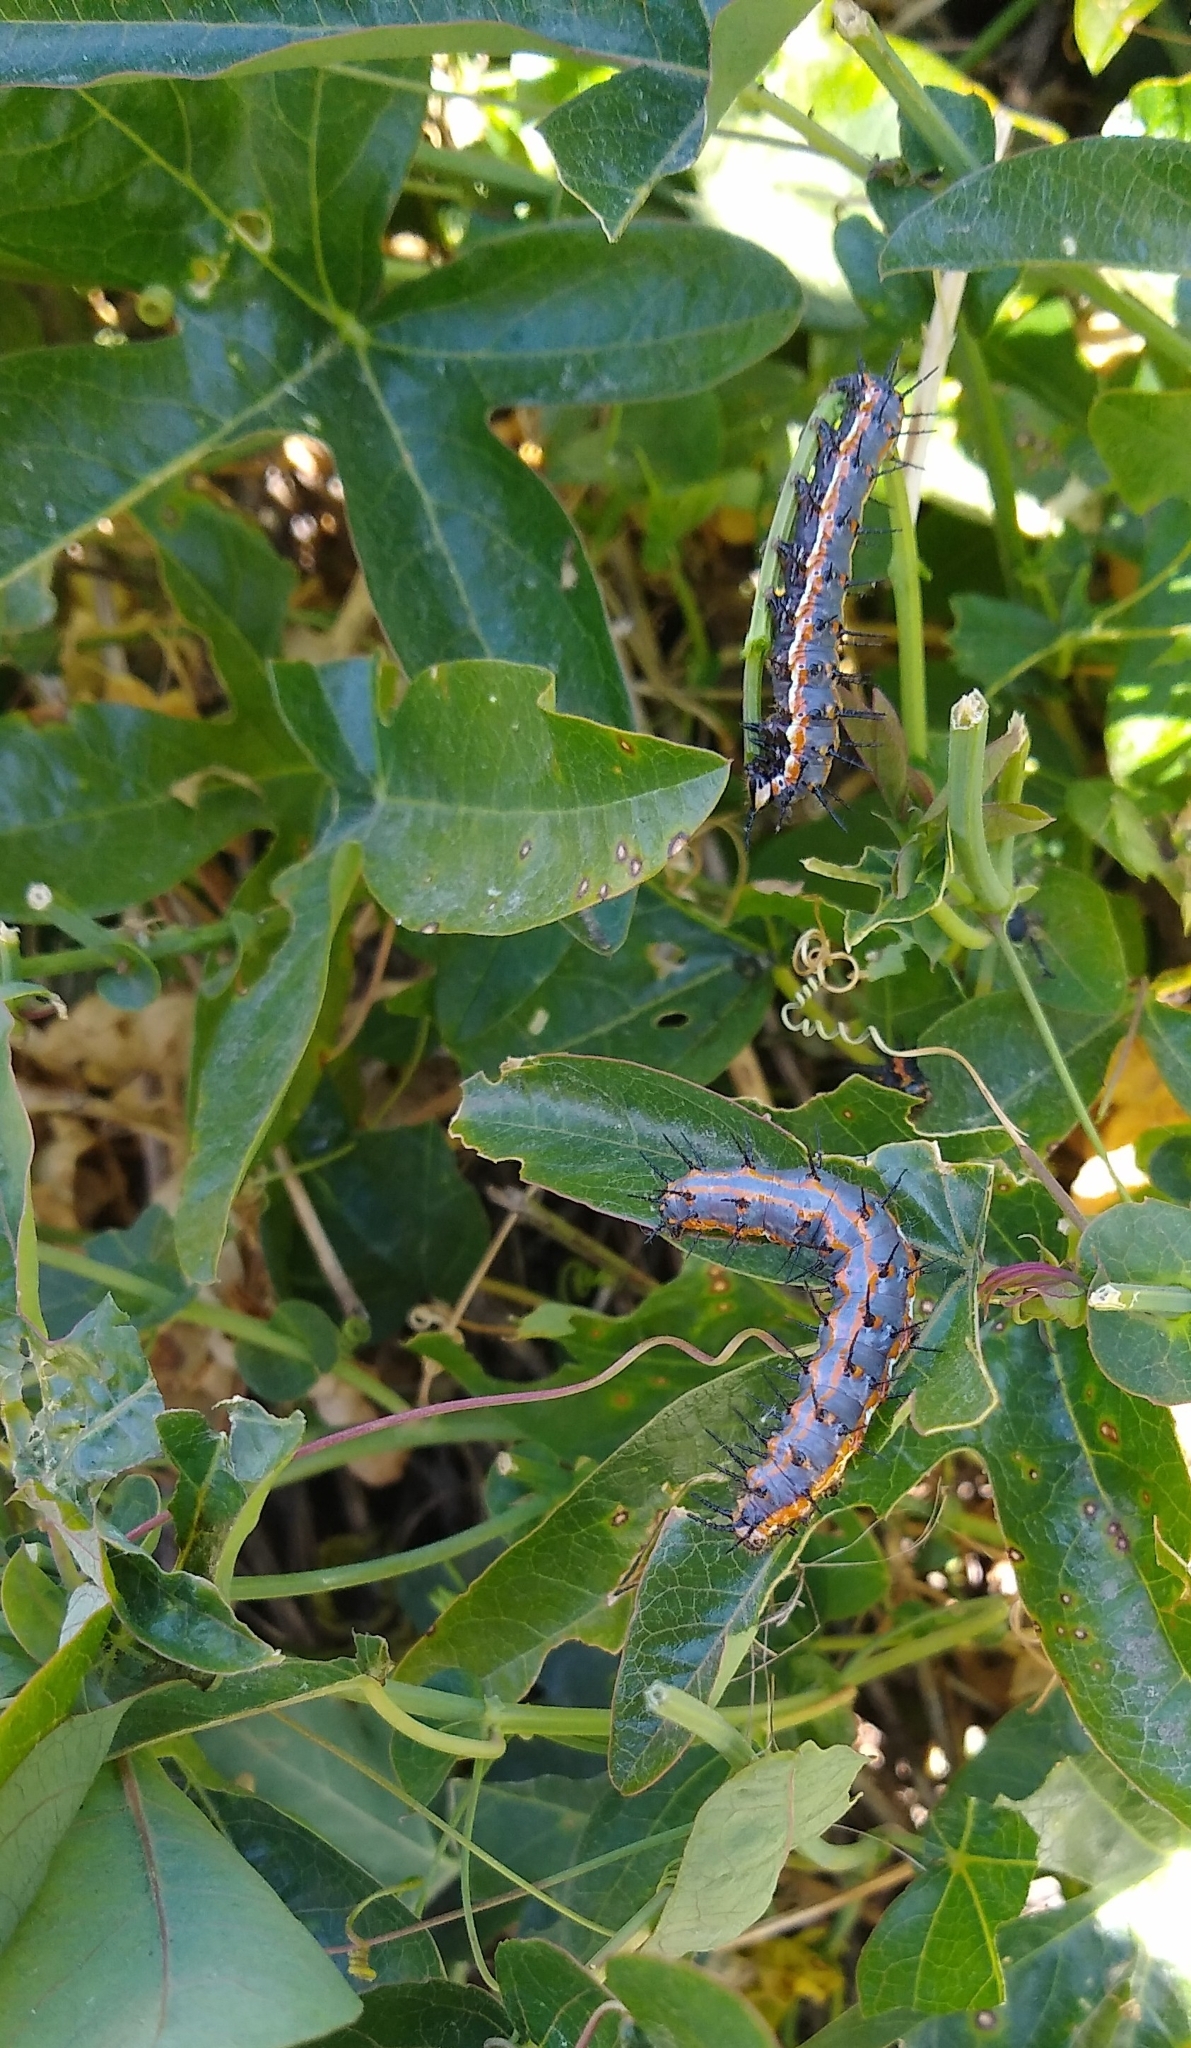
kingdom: Animalia
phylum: Arthropoda
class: Insecta
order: Lepidoptera
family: Nymphalidae
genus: Dione
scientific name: Dione vanillae
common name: Gulf fritillary
